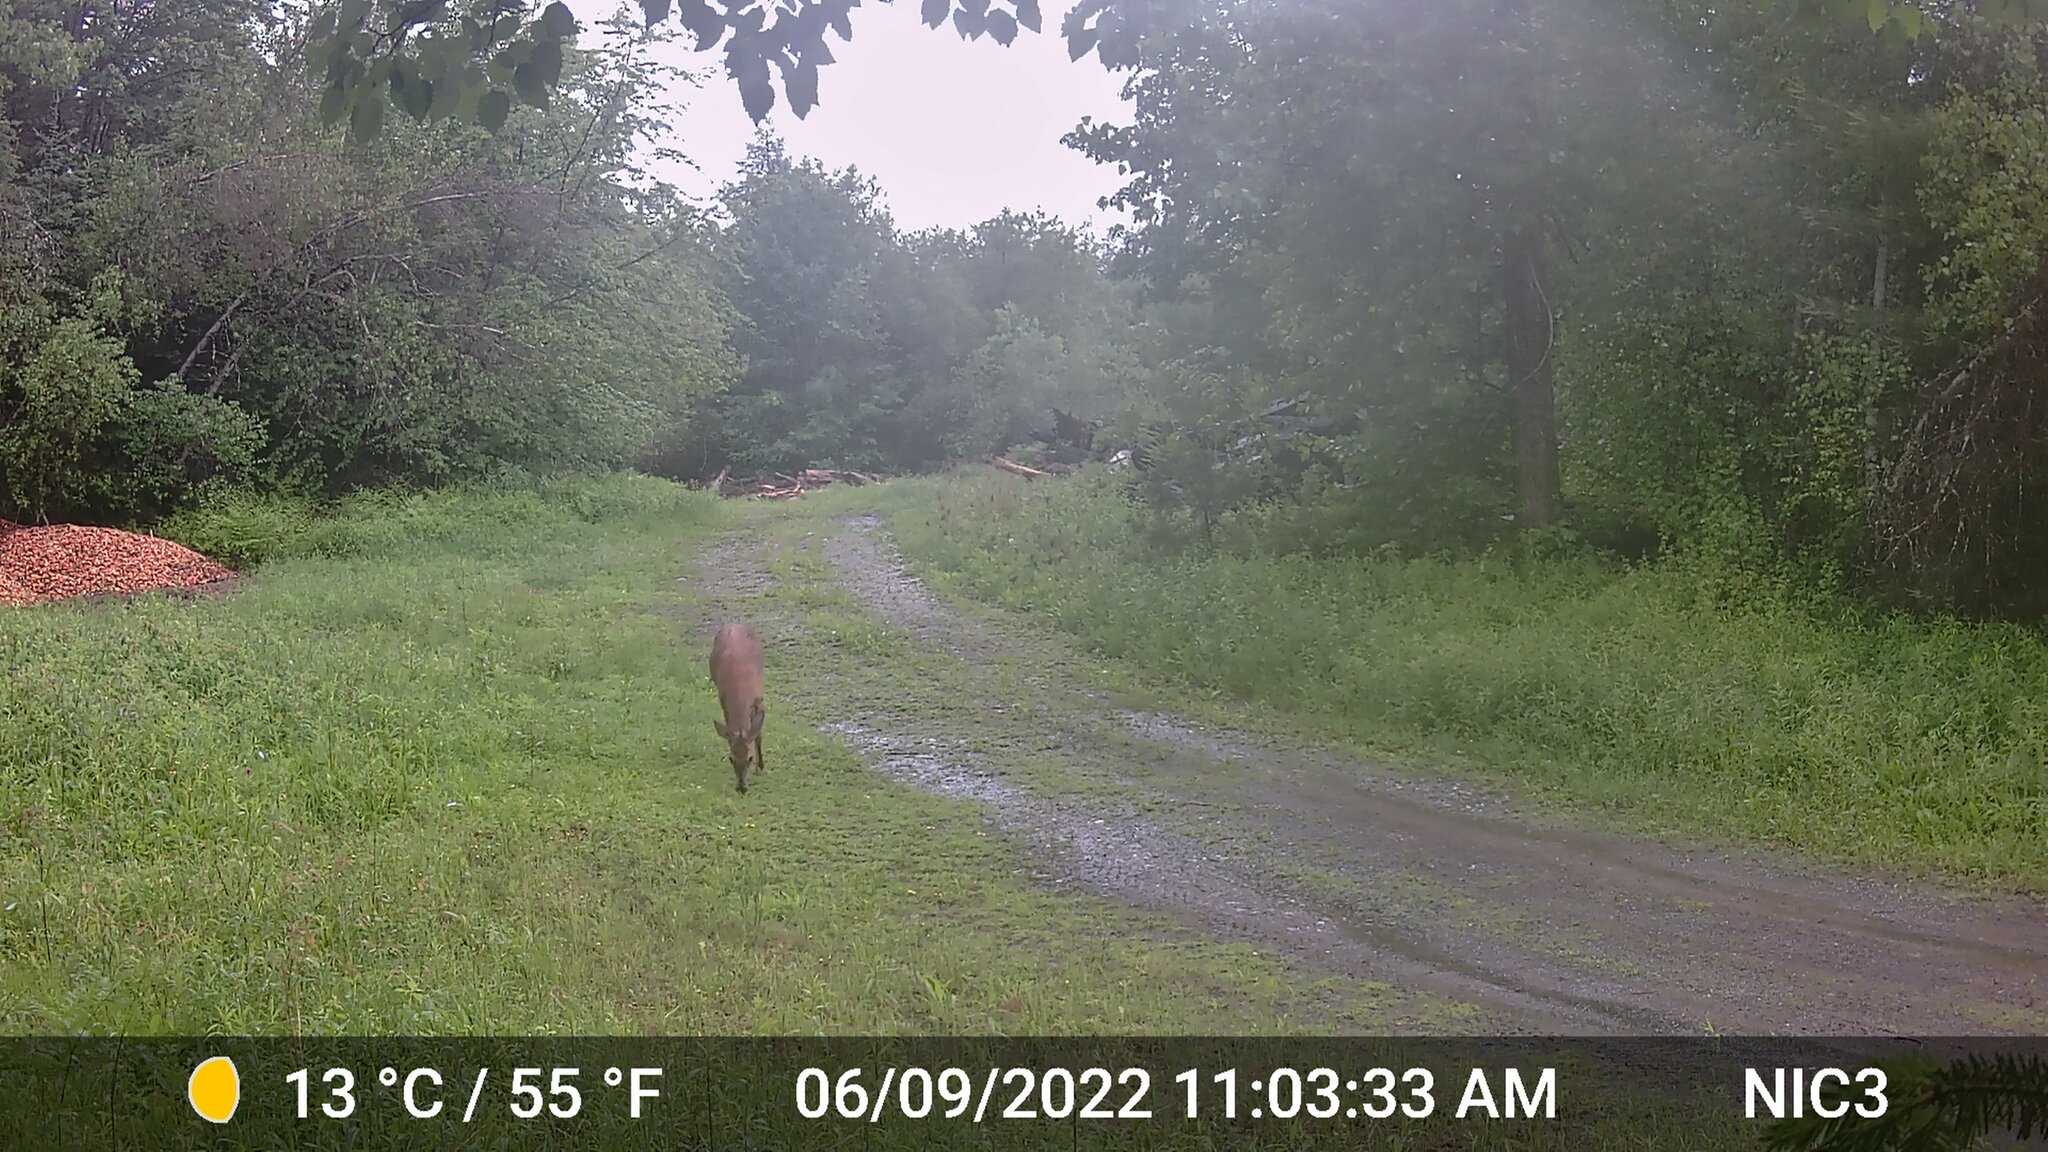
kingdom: Animalia
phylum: Chordata
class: Mammalia
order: Artiodactyla
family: Cervidae
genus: Odocoileus
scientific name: Odocoileus virginianus
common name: White-tailed deer
